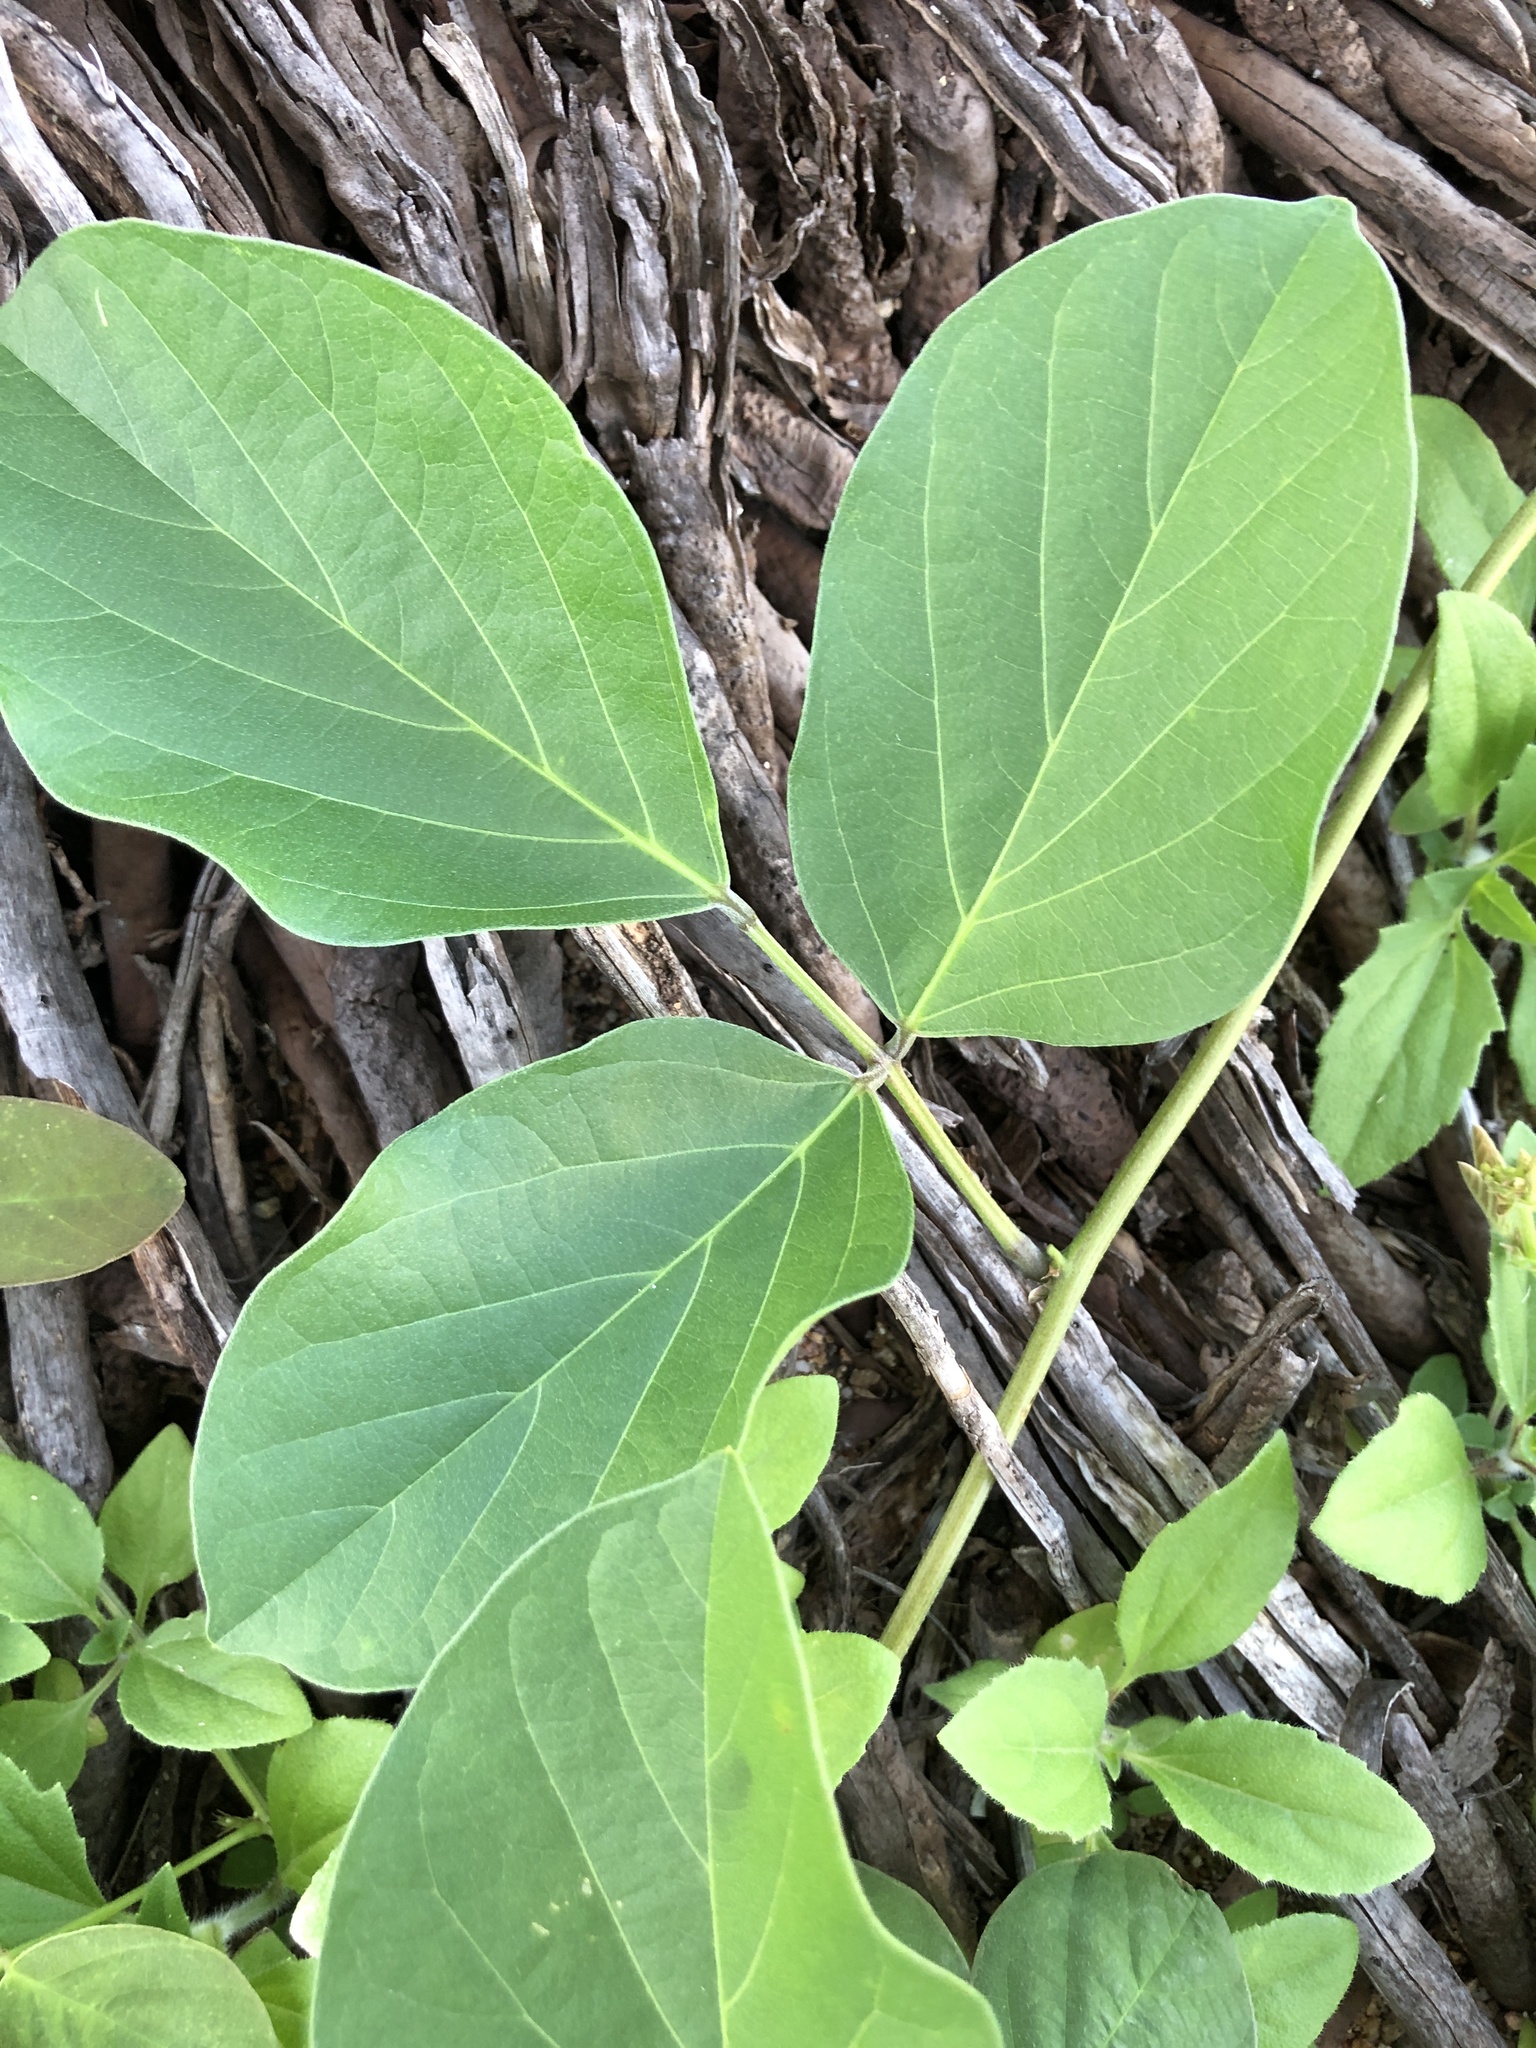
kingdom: Plantae
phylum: Tracheophyta
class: Magnoliopsida
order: Fabales
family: Fabaceae
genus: Canavalia
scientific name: Canavalia rosea
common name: Beach-bean
